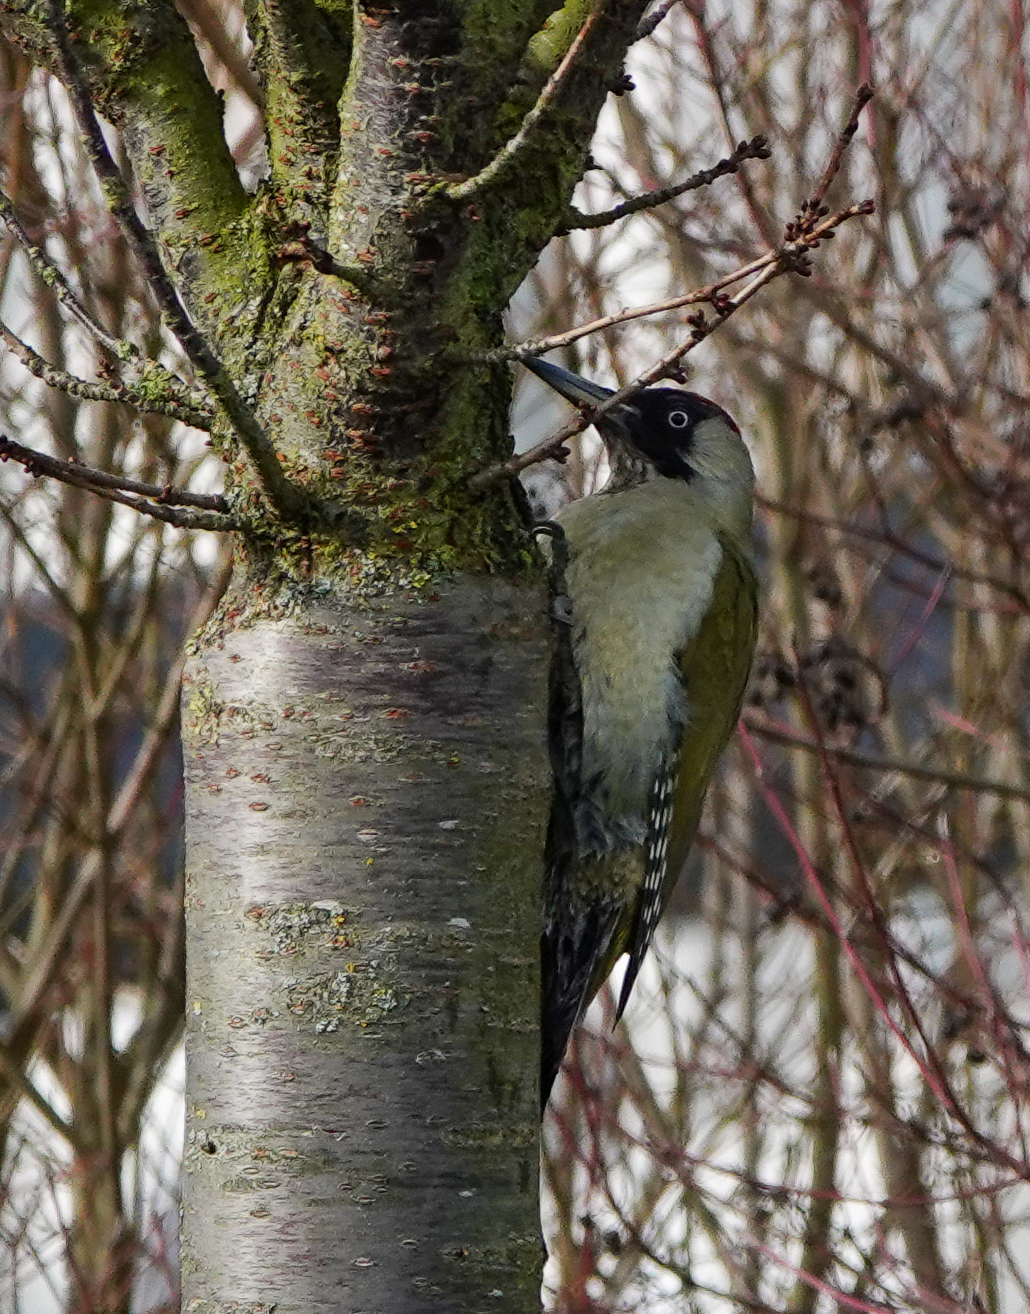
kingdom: Animalia
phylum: Chordata
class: Aves
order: Piciformes
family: Picidae
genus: Picus
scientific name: Picus viridis
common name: European green woodpecker
